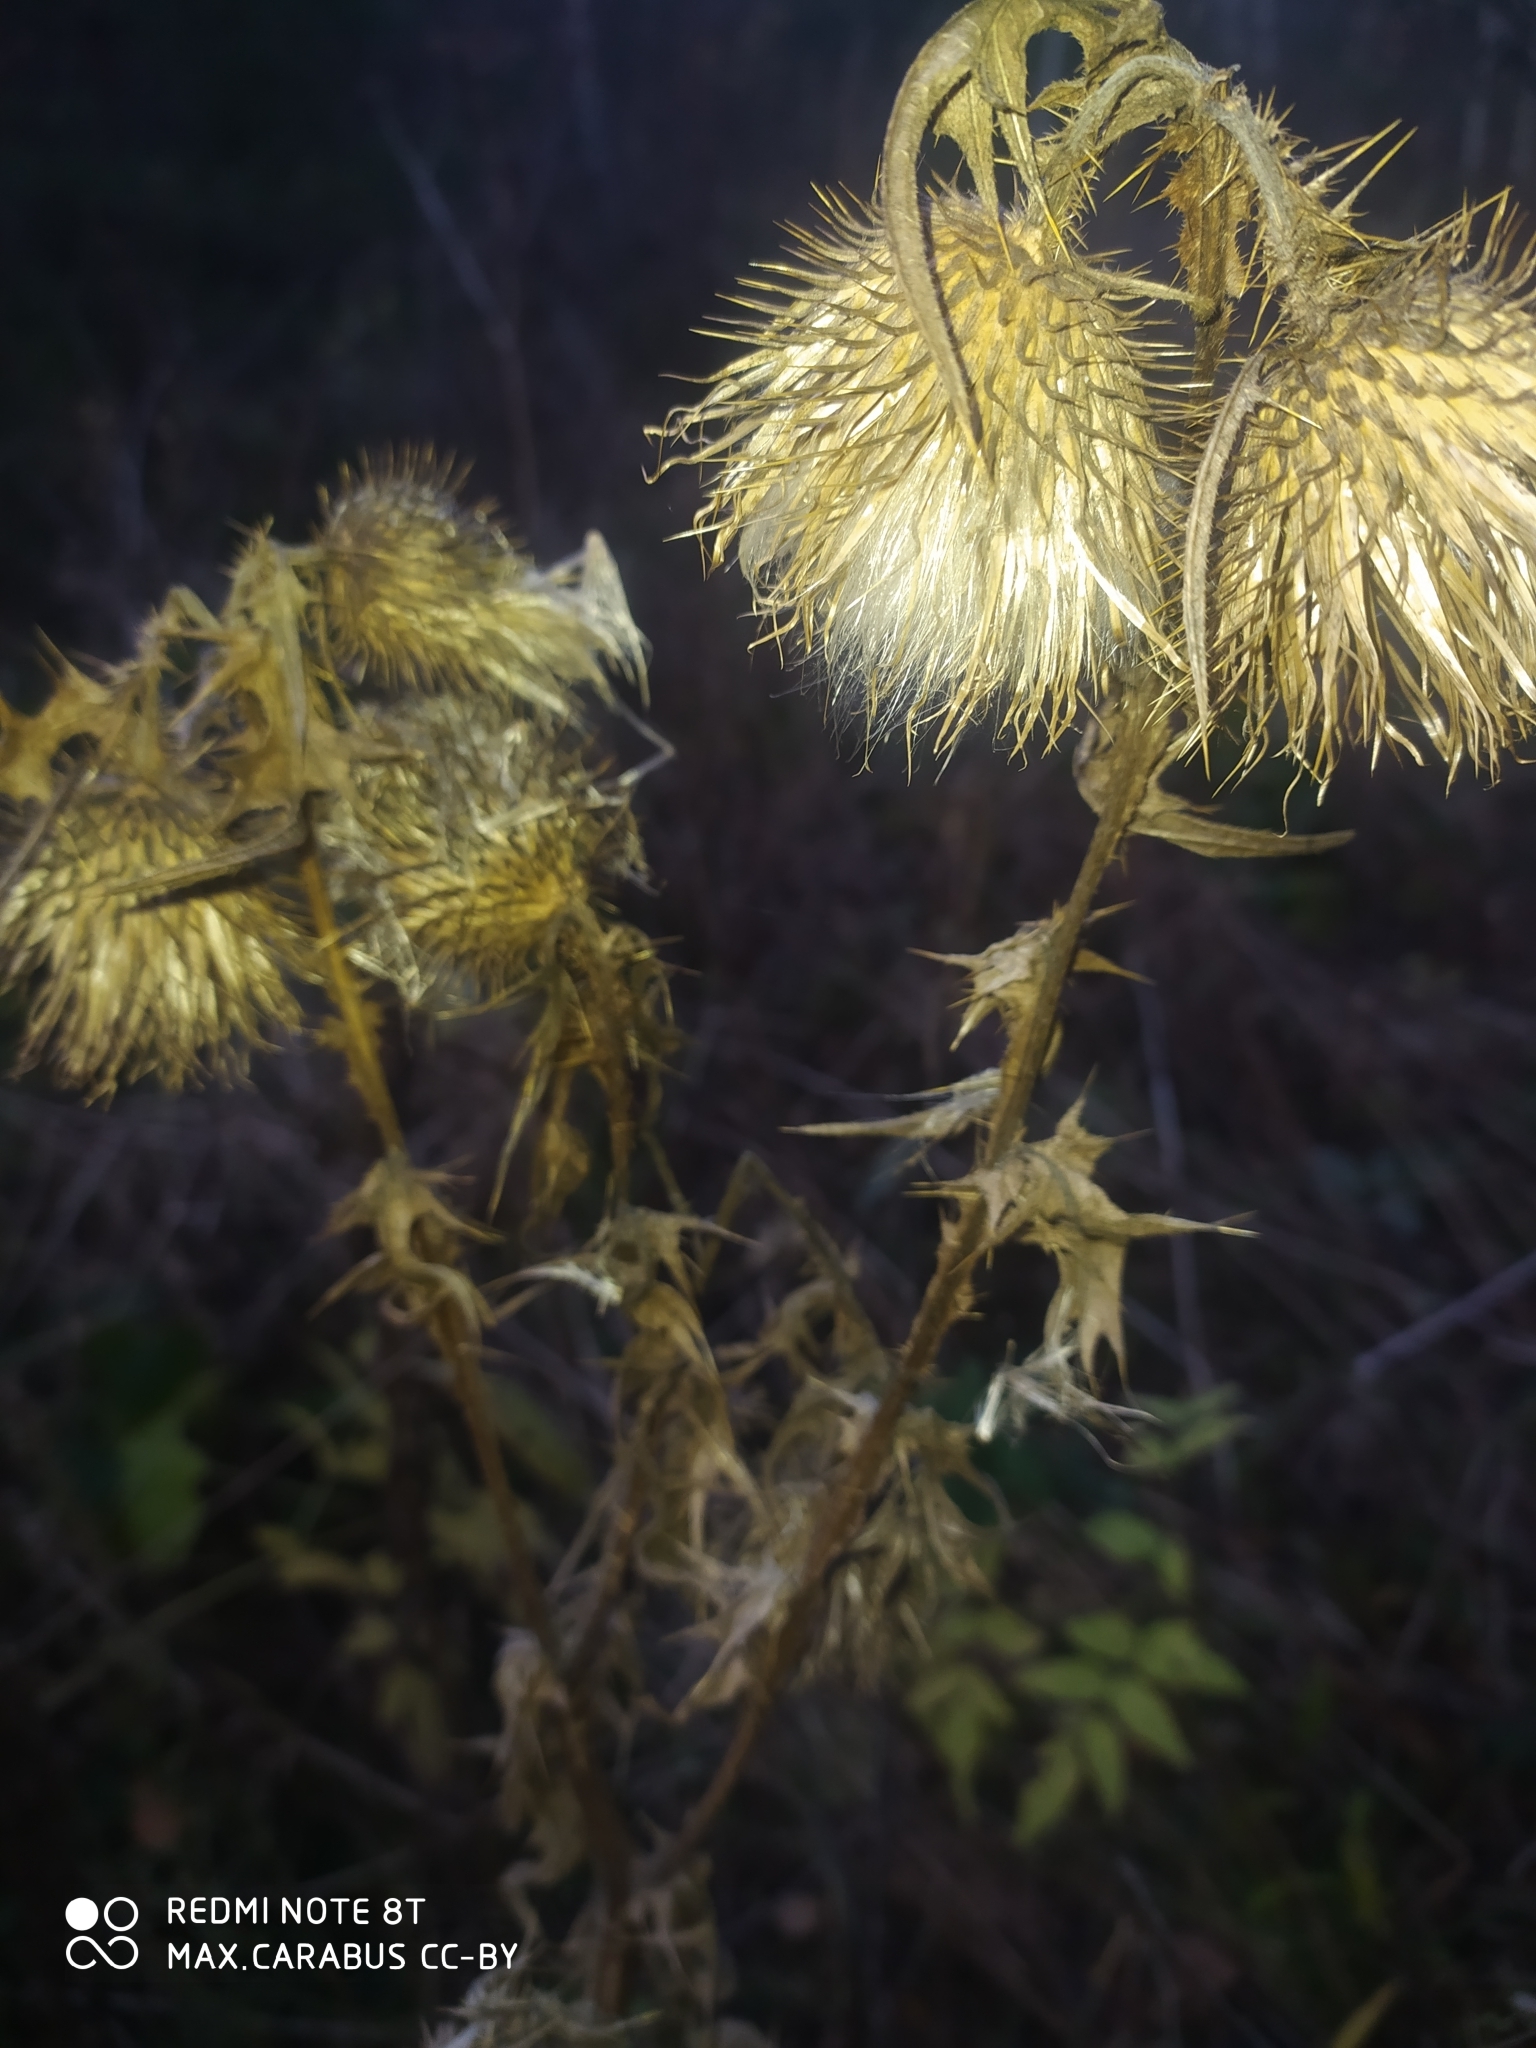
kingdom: Plantae
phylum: Tracheophyta
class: Magnoliopsida
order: Asterales
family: Asteraceae
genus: Cirsium
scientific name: Cirsium vulgare
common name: Bull thistle
